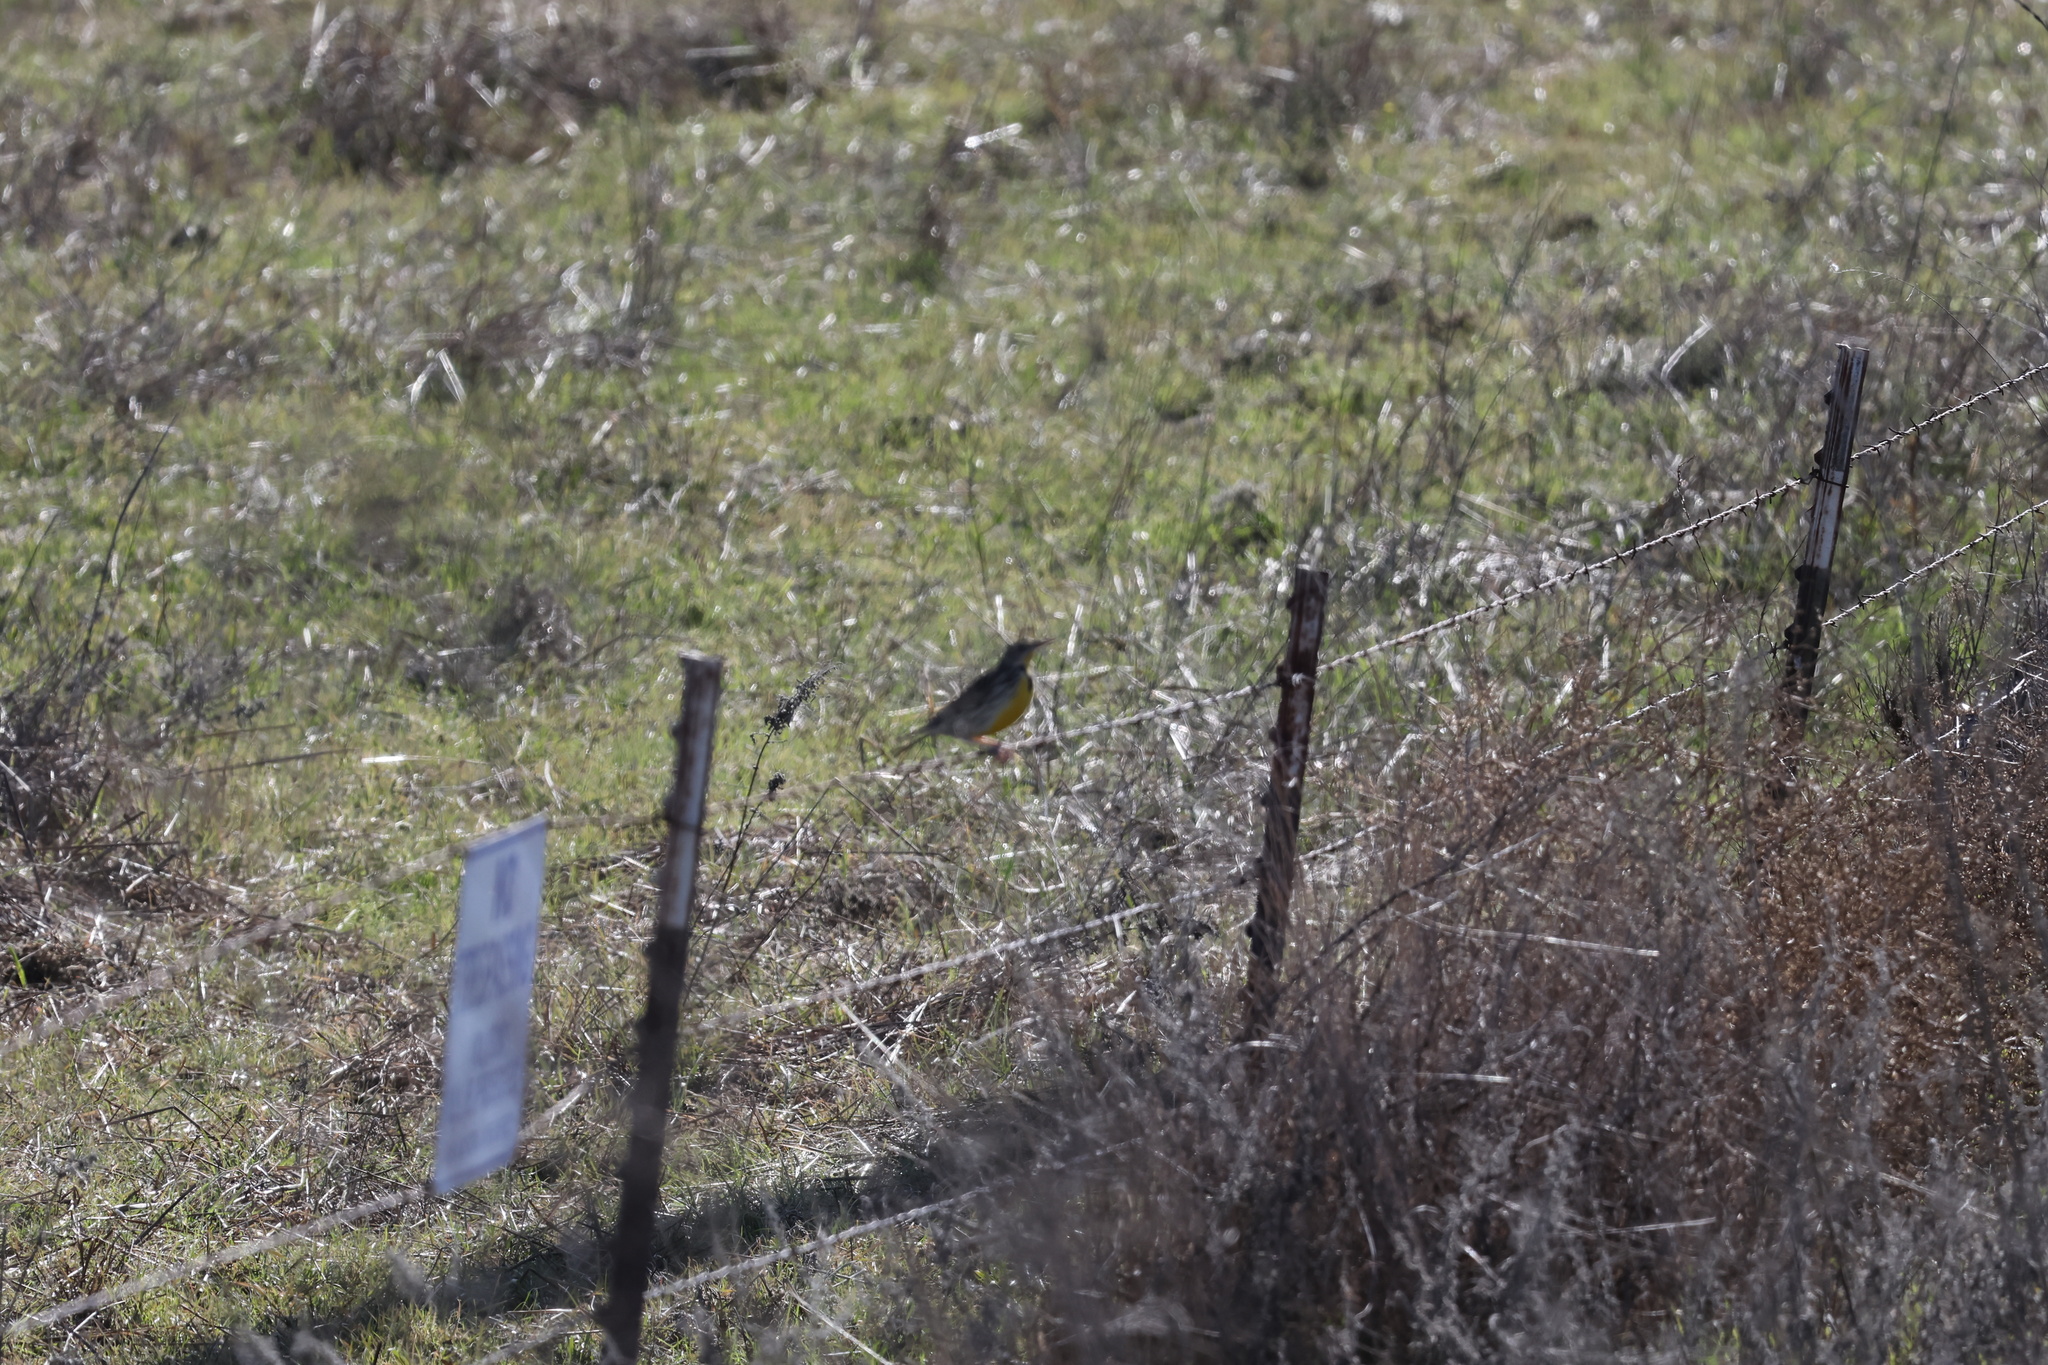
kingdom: Animalia
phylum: Chordata
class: Aves
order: Passeriformes
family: Icteridae
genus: Sturnella
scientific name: Sturnella neglecta
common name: Western meadowlark
